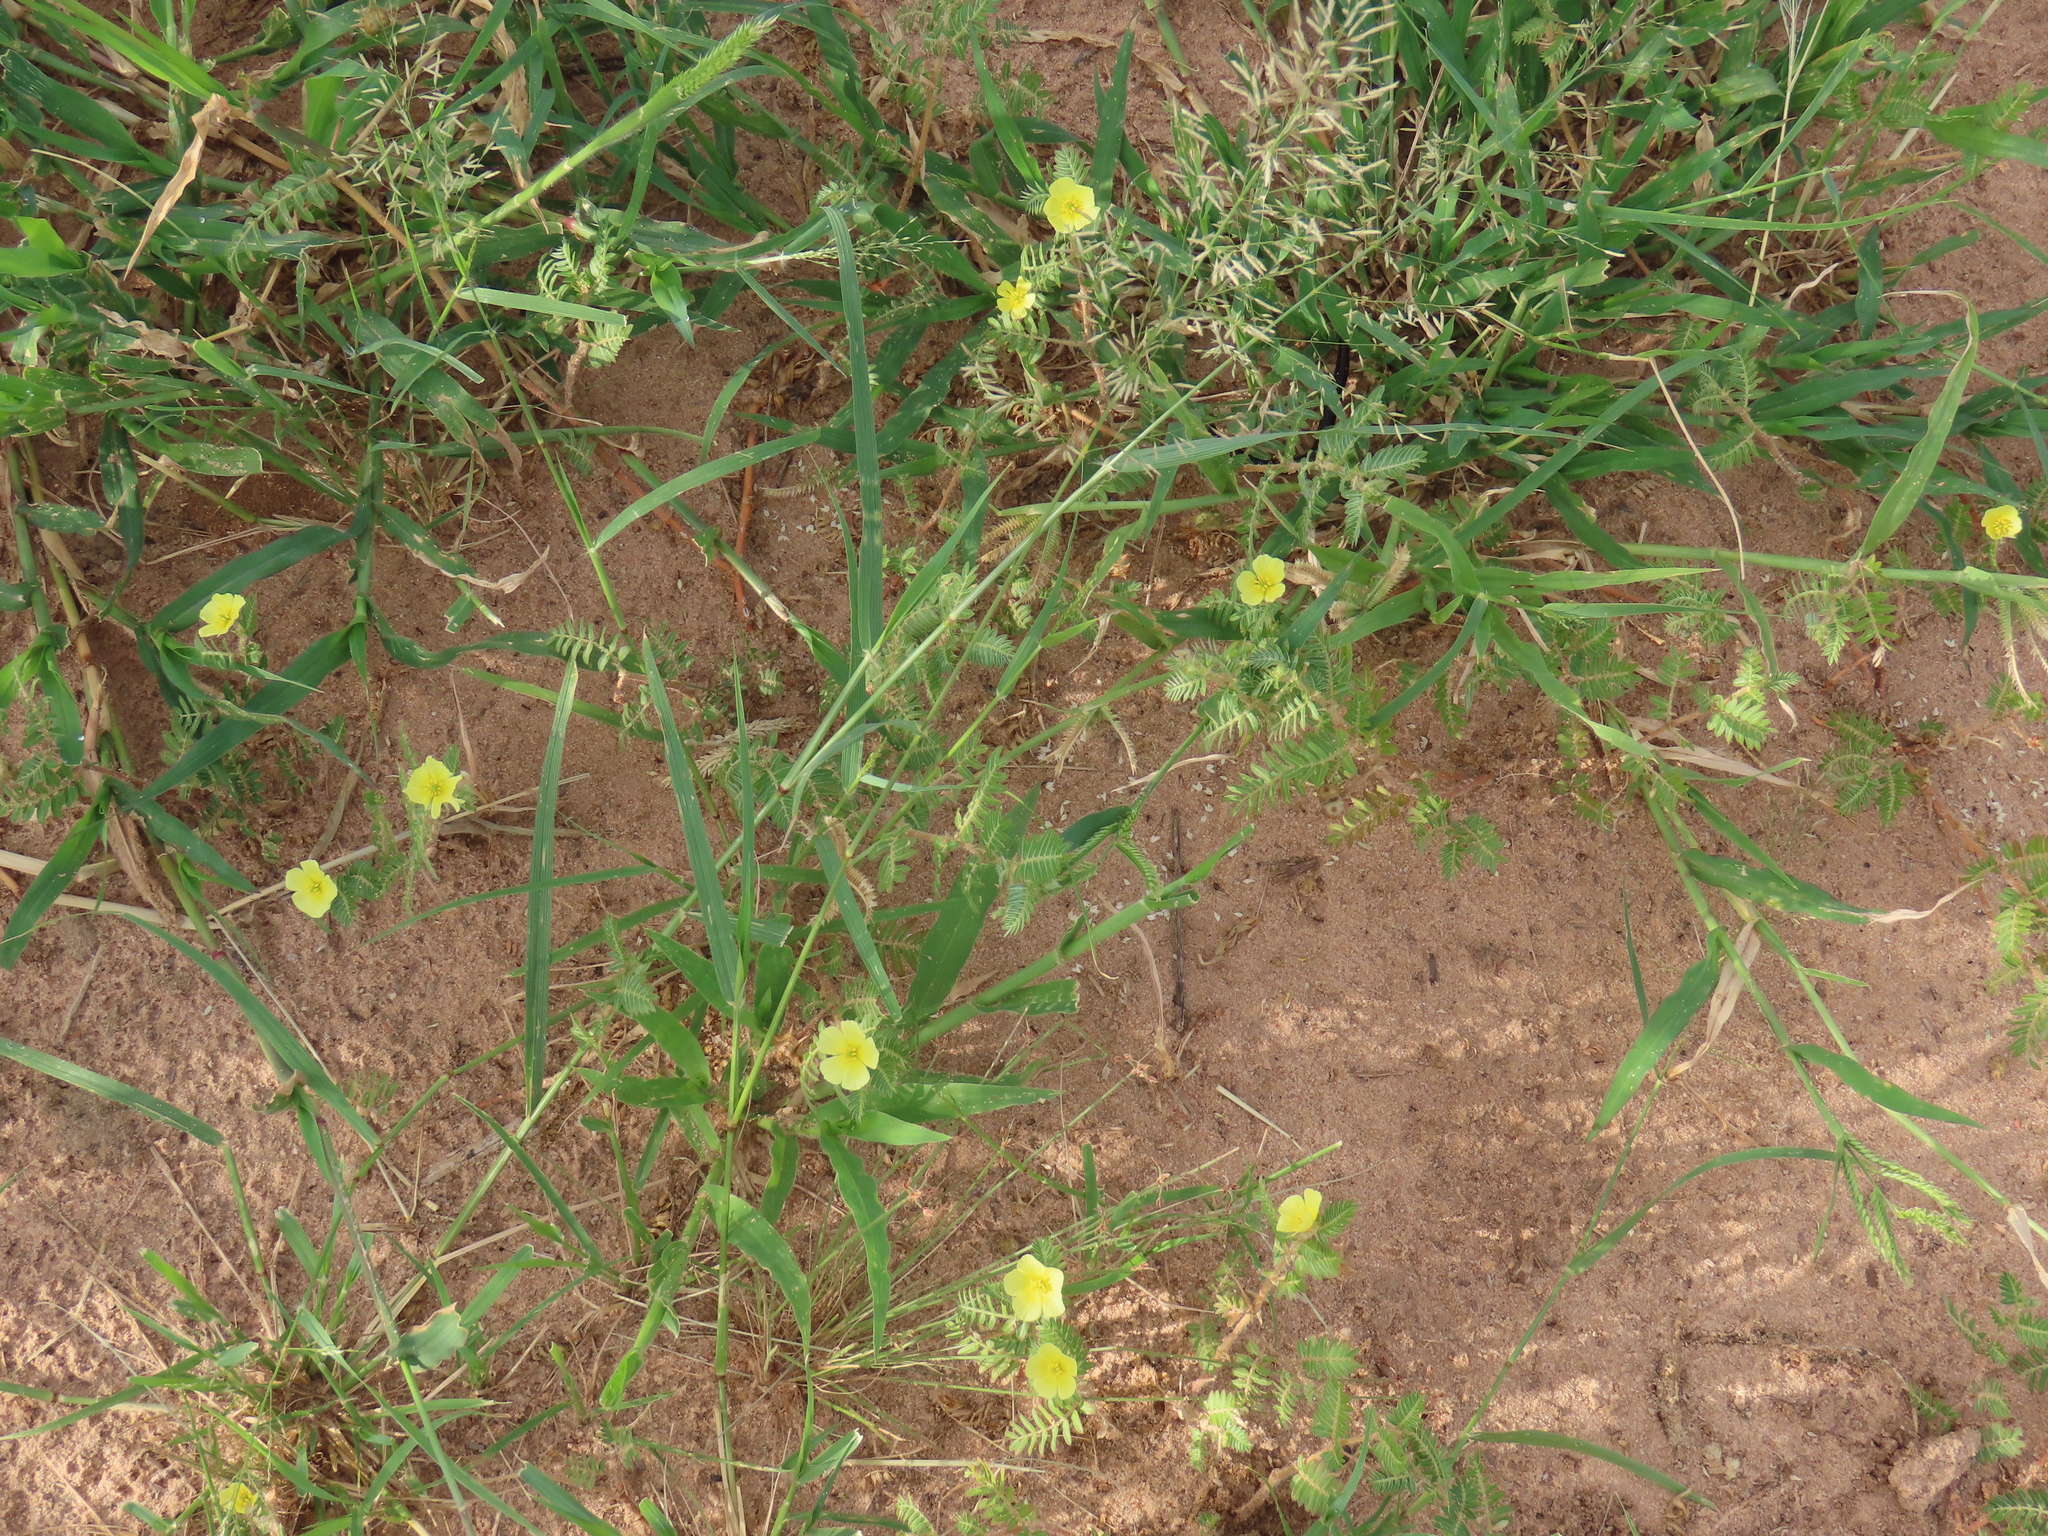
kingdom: Plantae
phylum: Tracheophyta
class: Magnoliopsida
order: Zygophyllales
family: Zygophyllaceae
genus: Tribulus
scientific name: Tribulus terrestris
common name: Puncturevine
